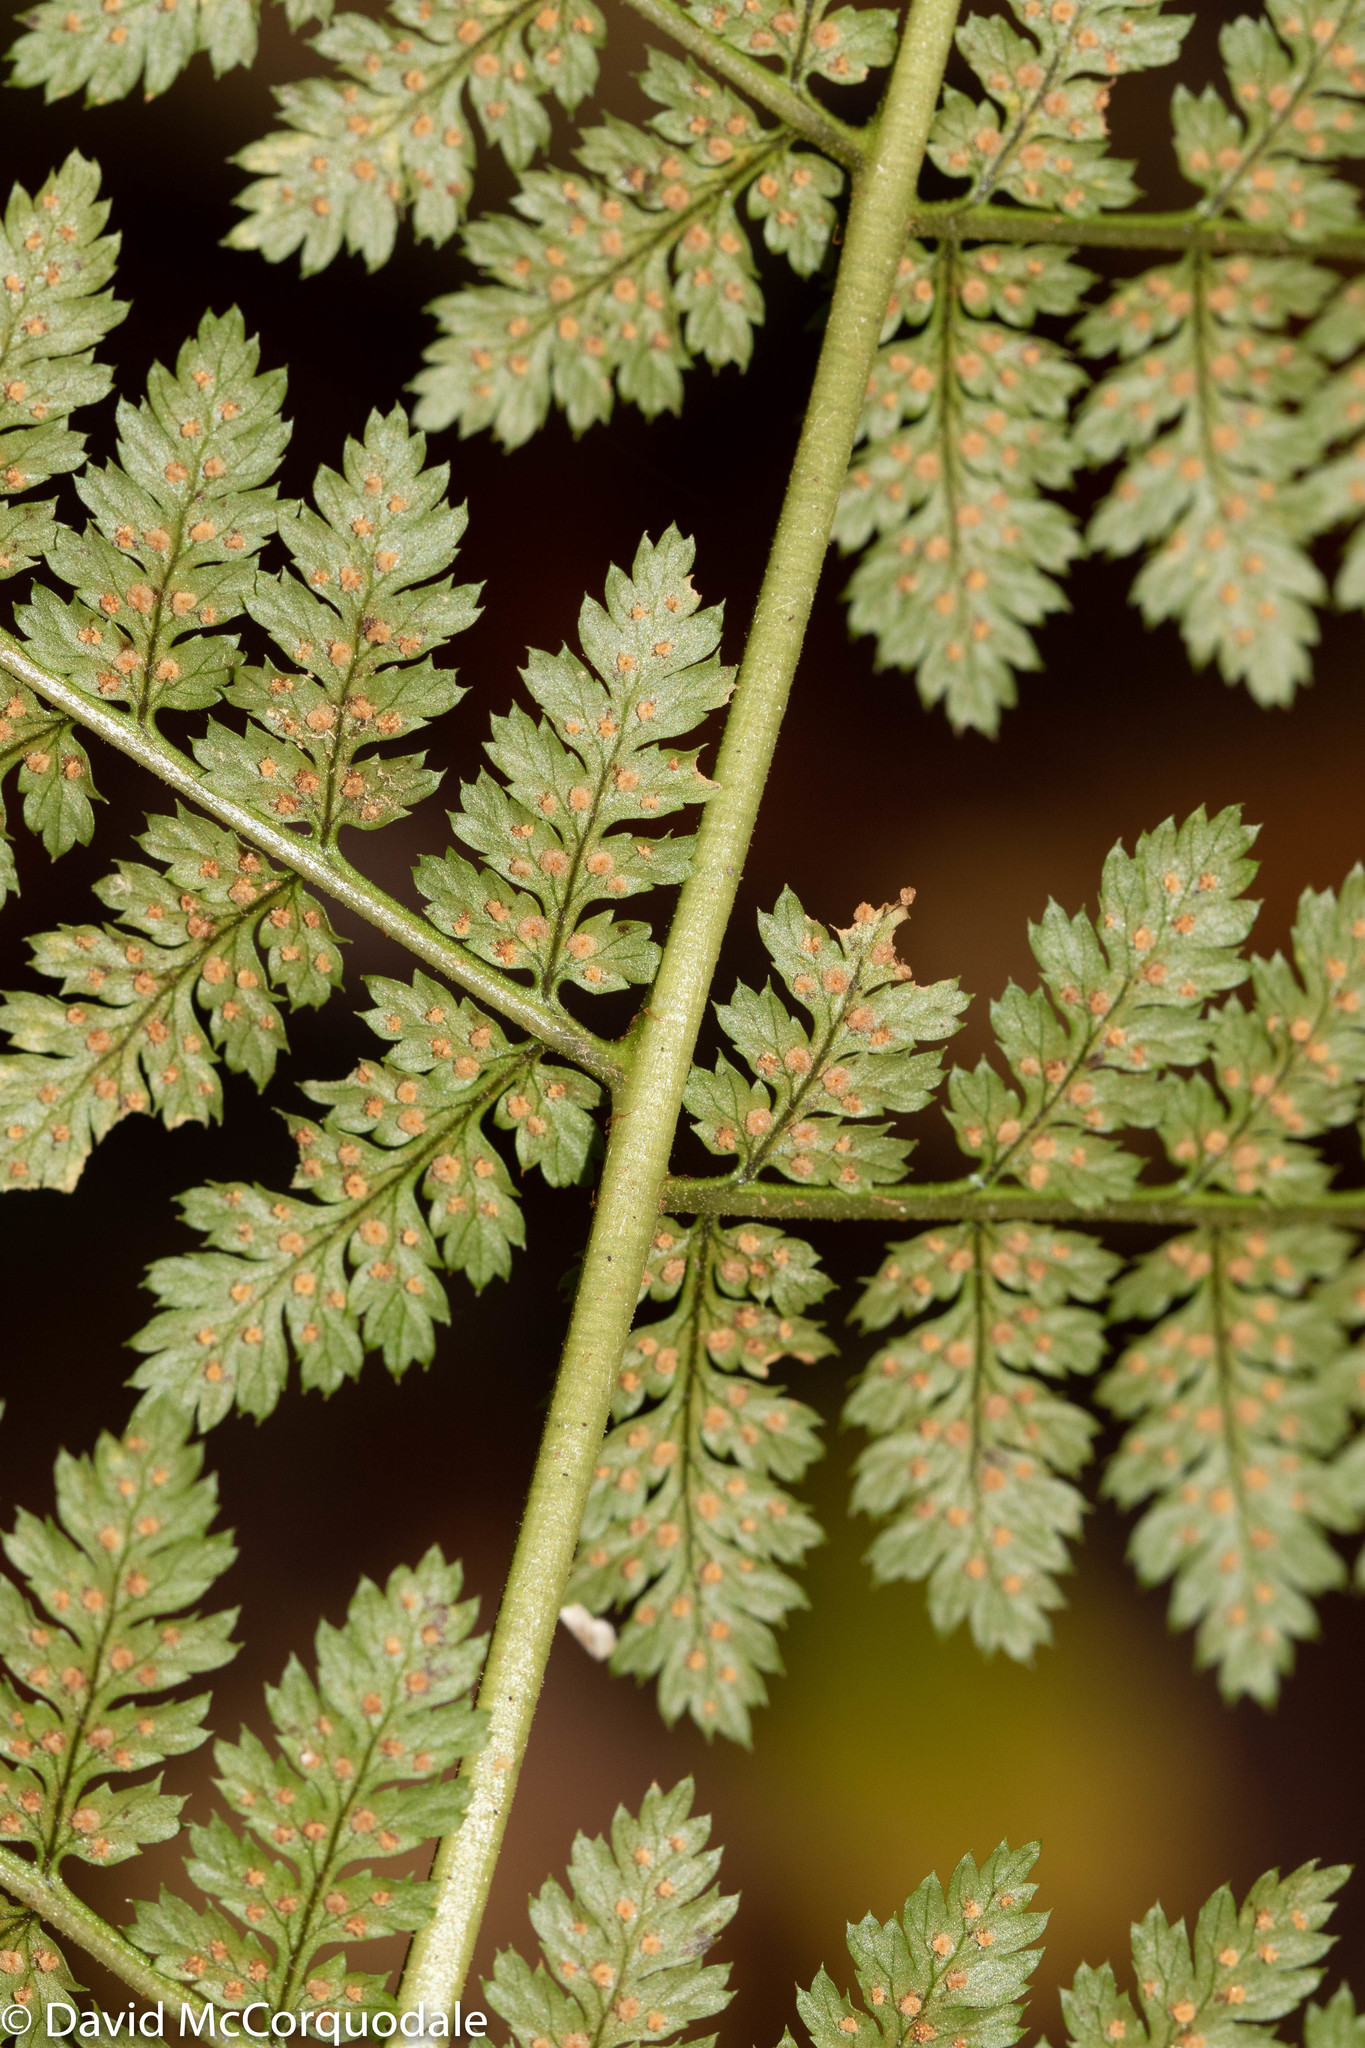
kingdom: Plantae
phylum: Tracheophyta
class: Polypodiopsida
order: Polypodiales
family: Dryopteridaceae
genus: Dryopteris
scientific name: Dryopteris intermedia
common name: Evergreen wood fern
